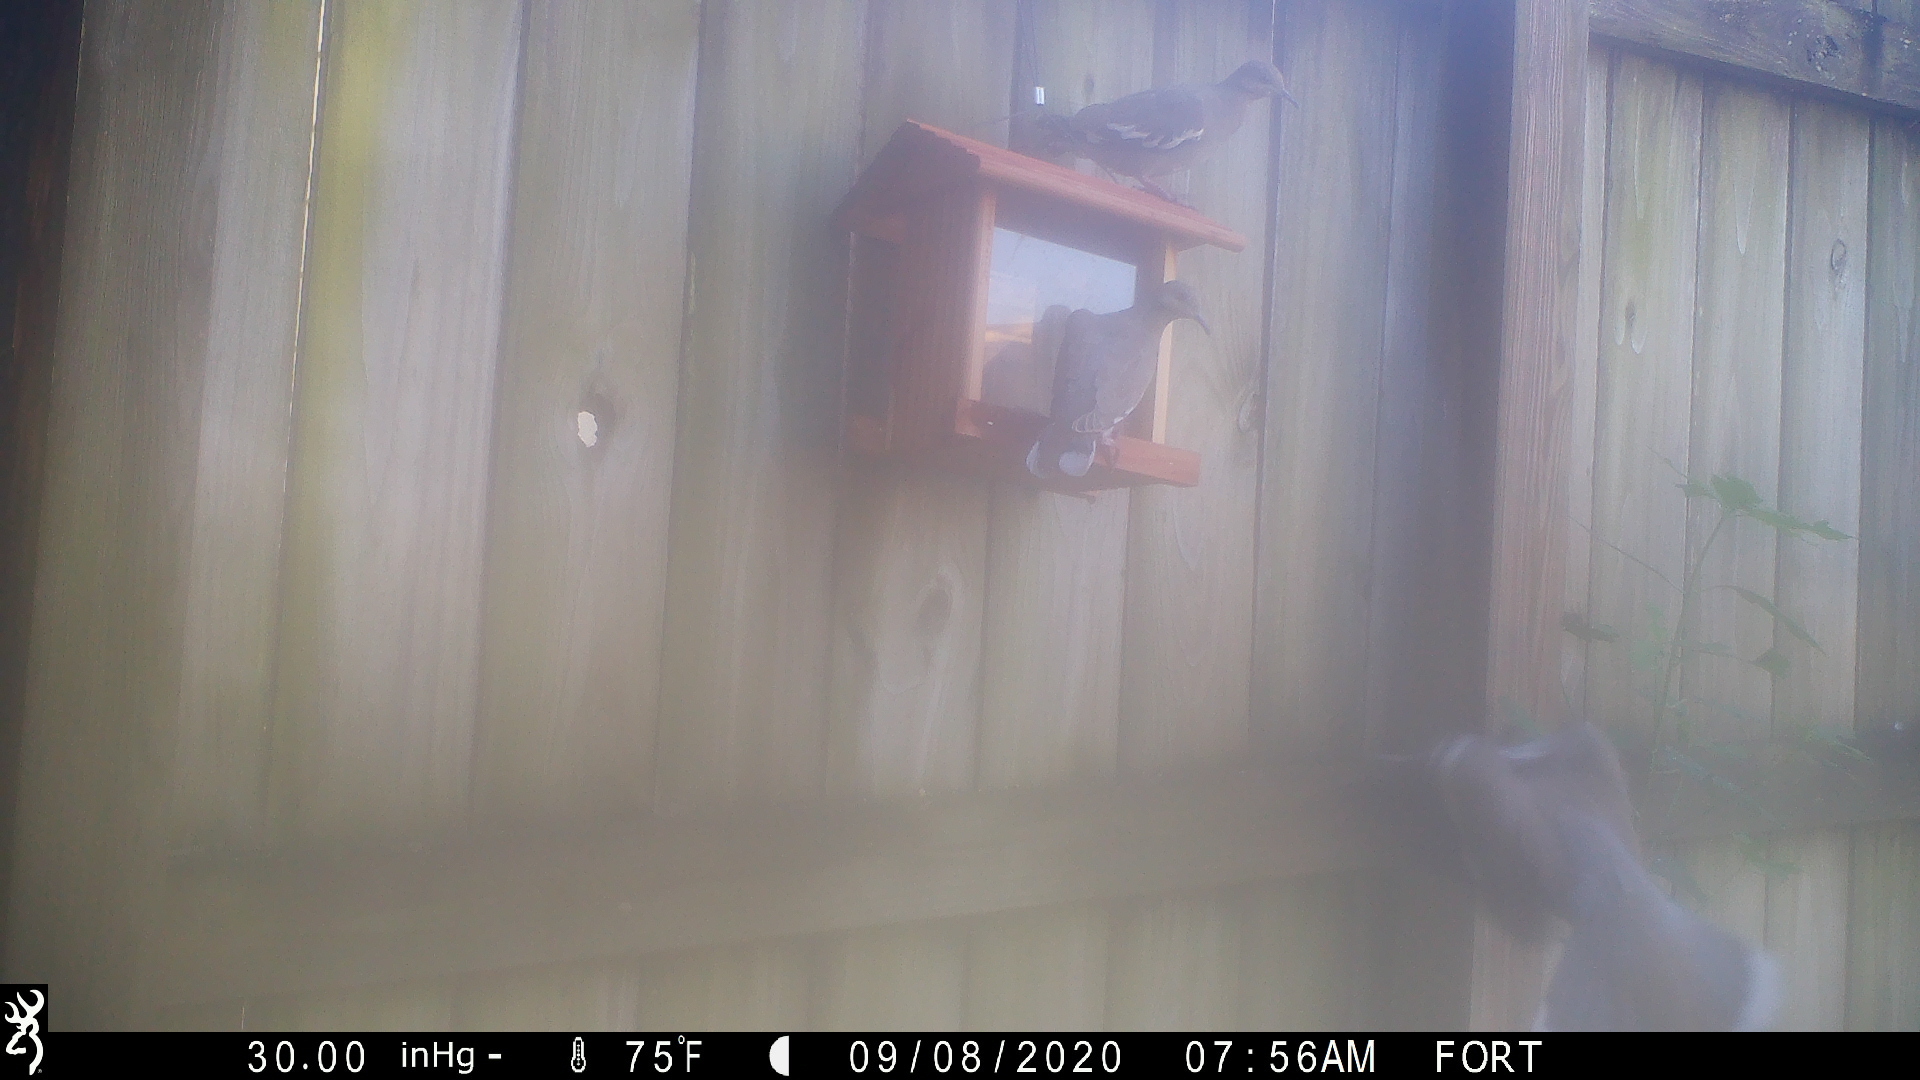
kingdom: Animalia
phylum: Chordata
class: Aves
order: Columbiformes
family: Columbidae
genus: Zenaida
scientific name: Zenaida asiatica
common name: White-winged dove
